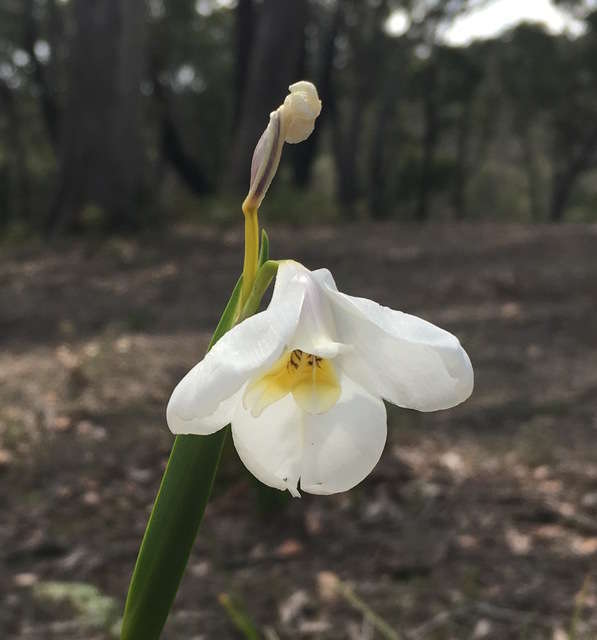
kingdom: Plantae
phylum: Tracheophyta
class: Liliopsida
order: Asparagales
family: Iridaceae
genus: Diplarrena
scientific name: Diplarrena moraea
